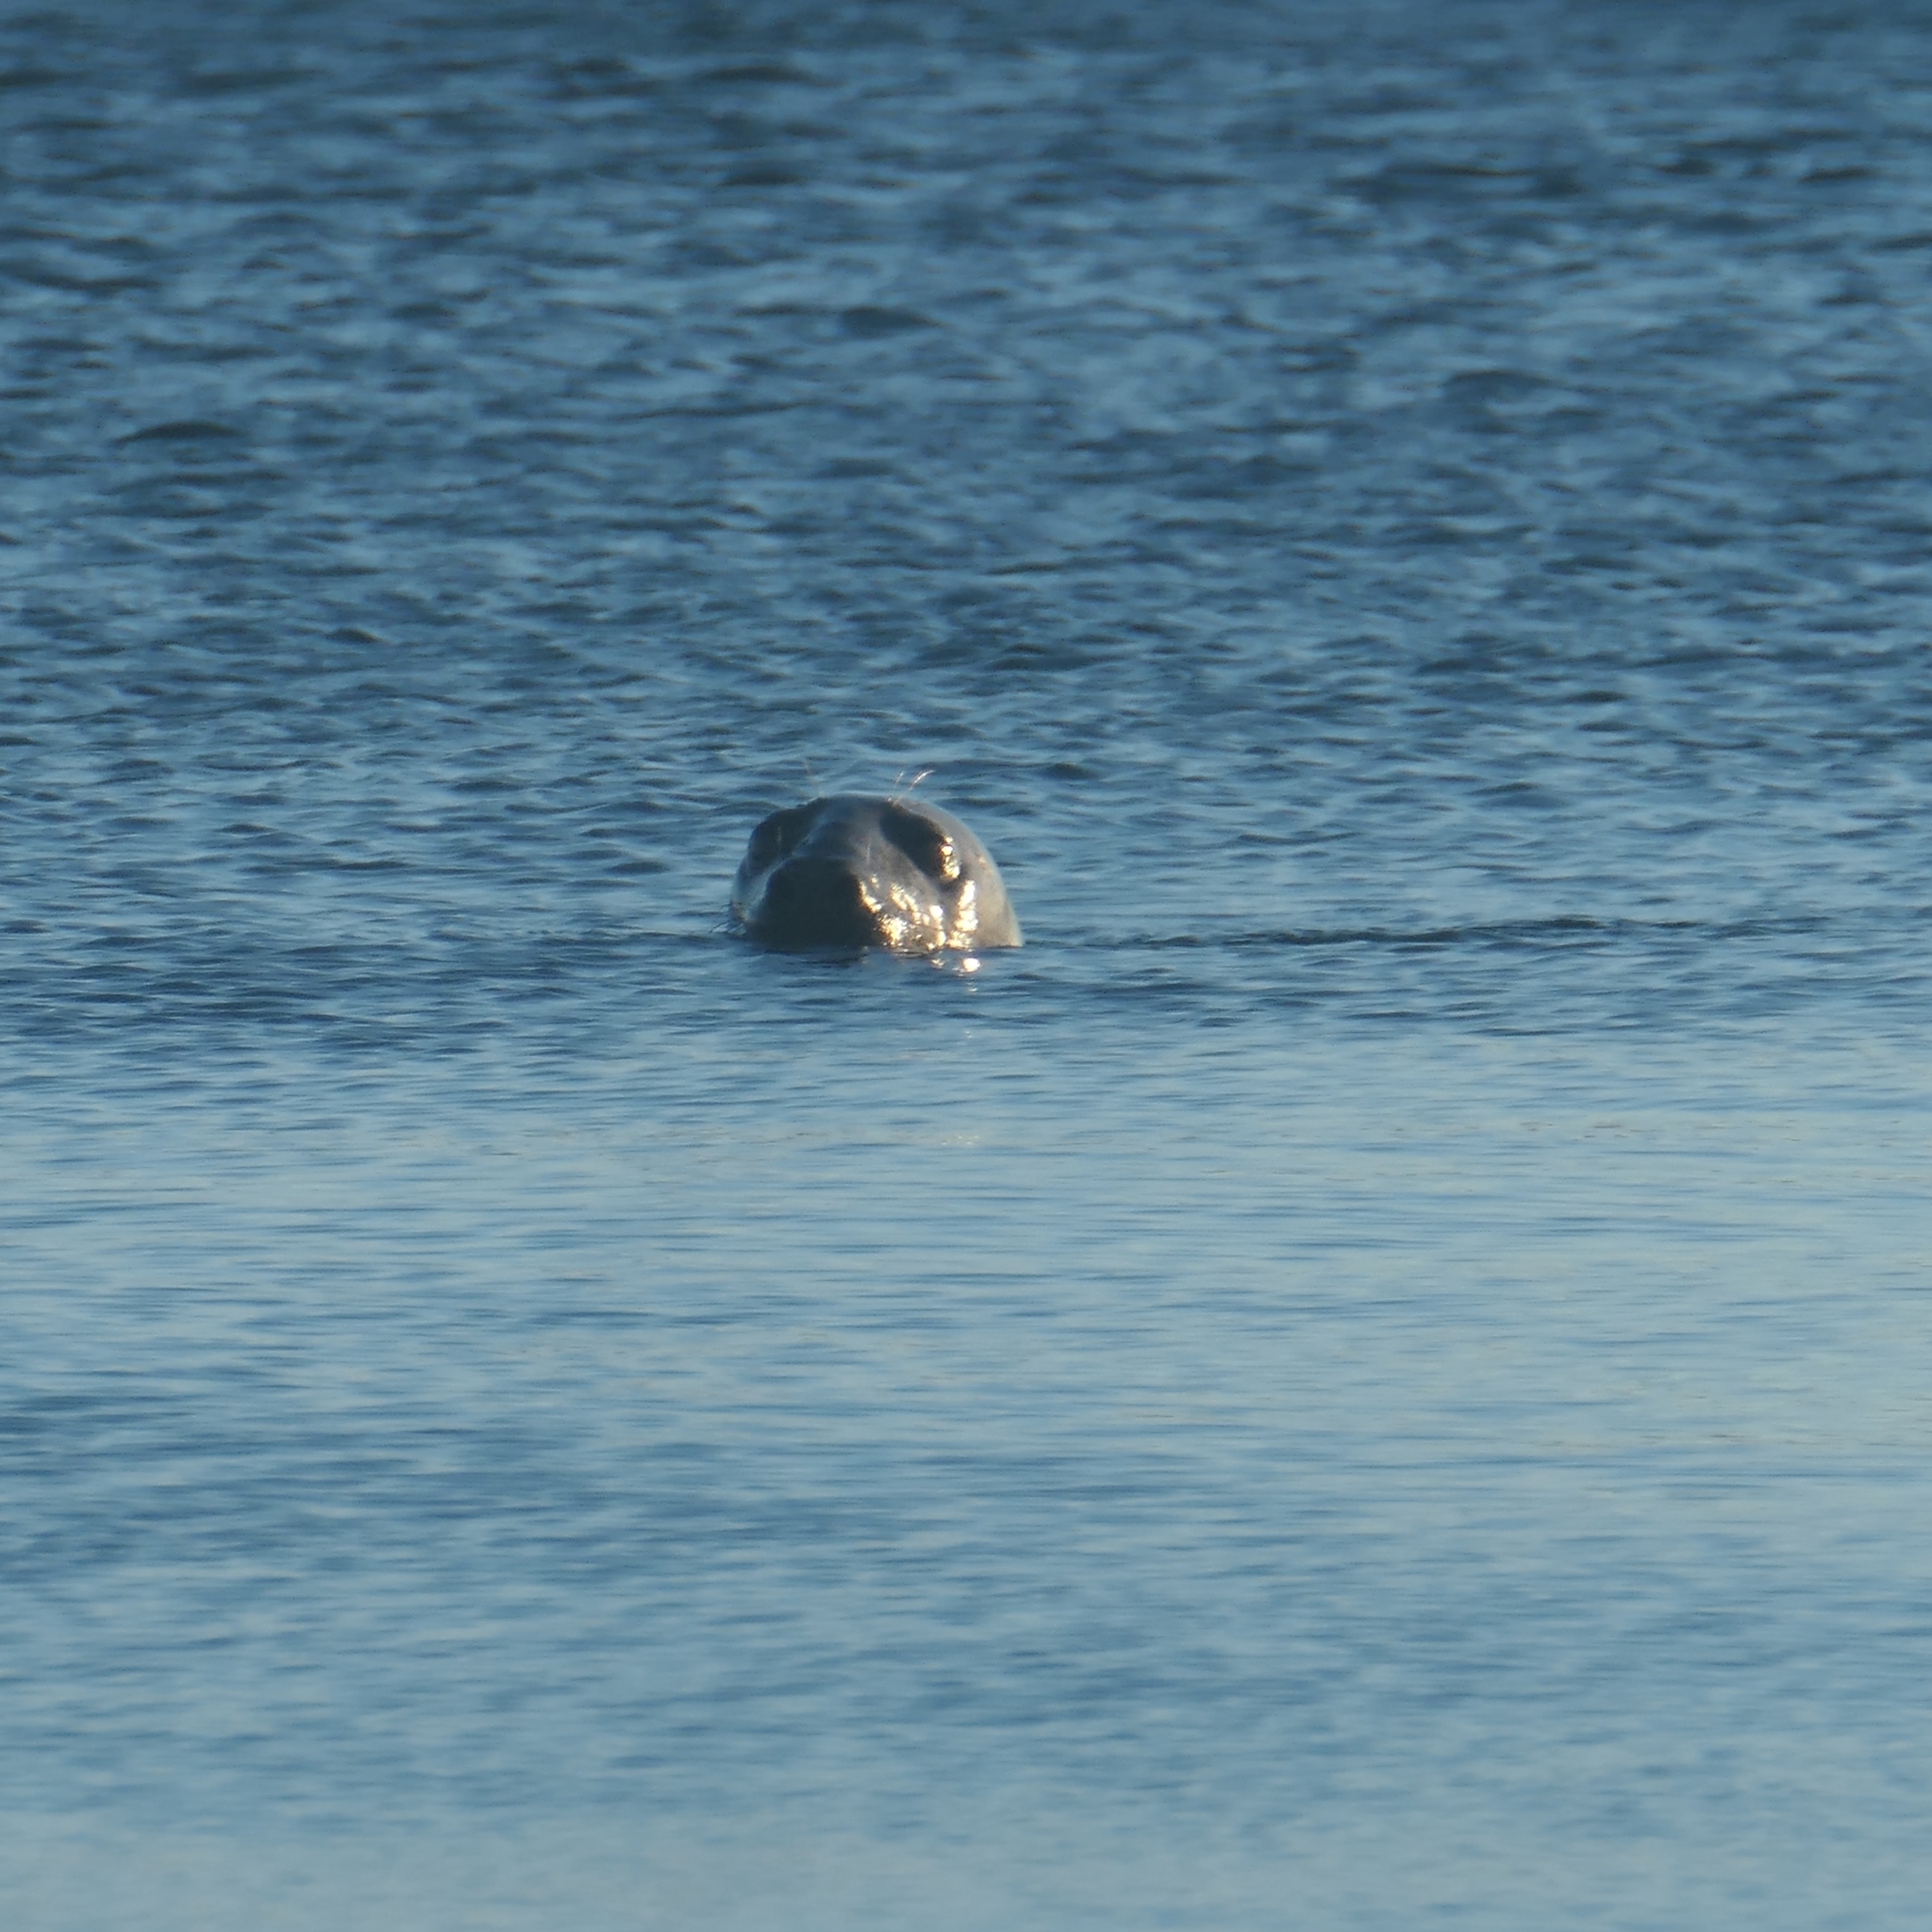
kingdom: Animalia
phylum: Chordata
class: Mammalia
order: Carnivora
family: Phocidae
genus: Halichoerus
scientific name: Halichoerus grypus
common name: Grey seal
